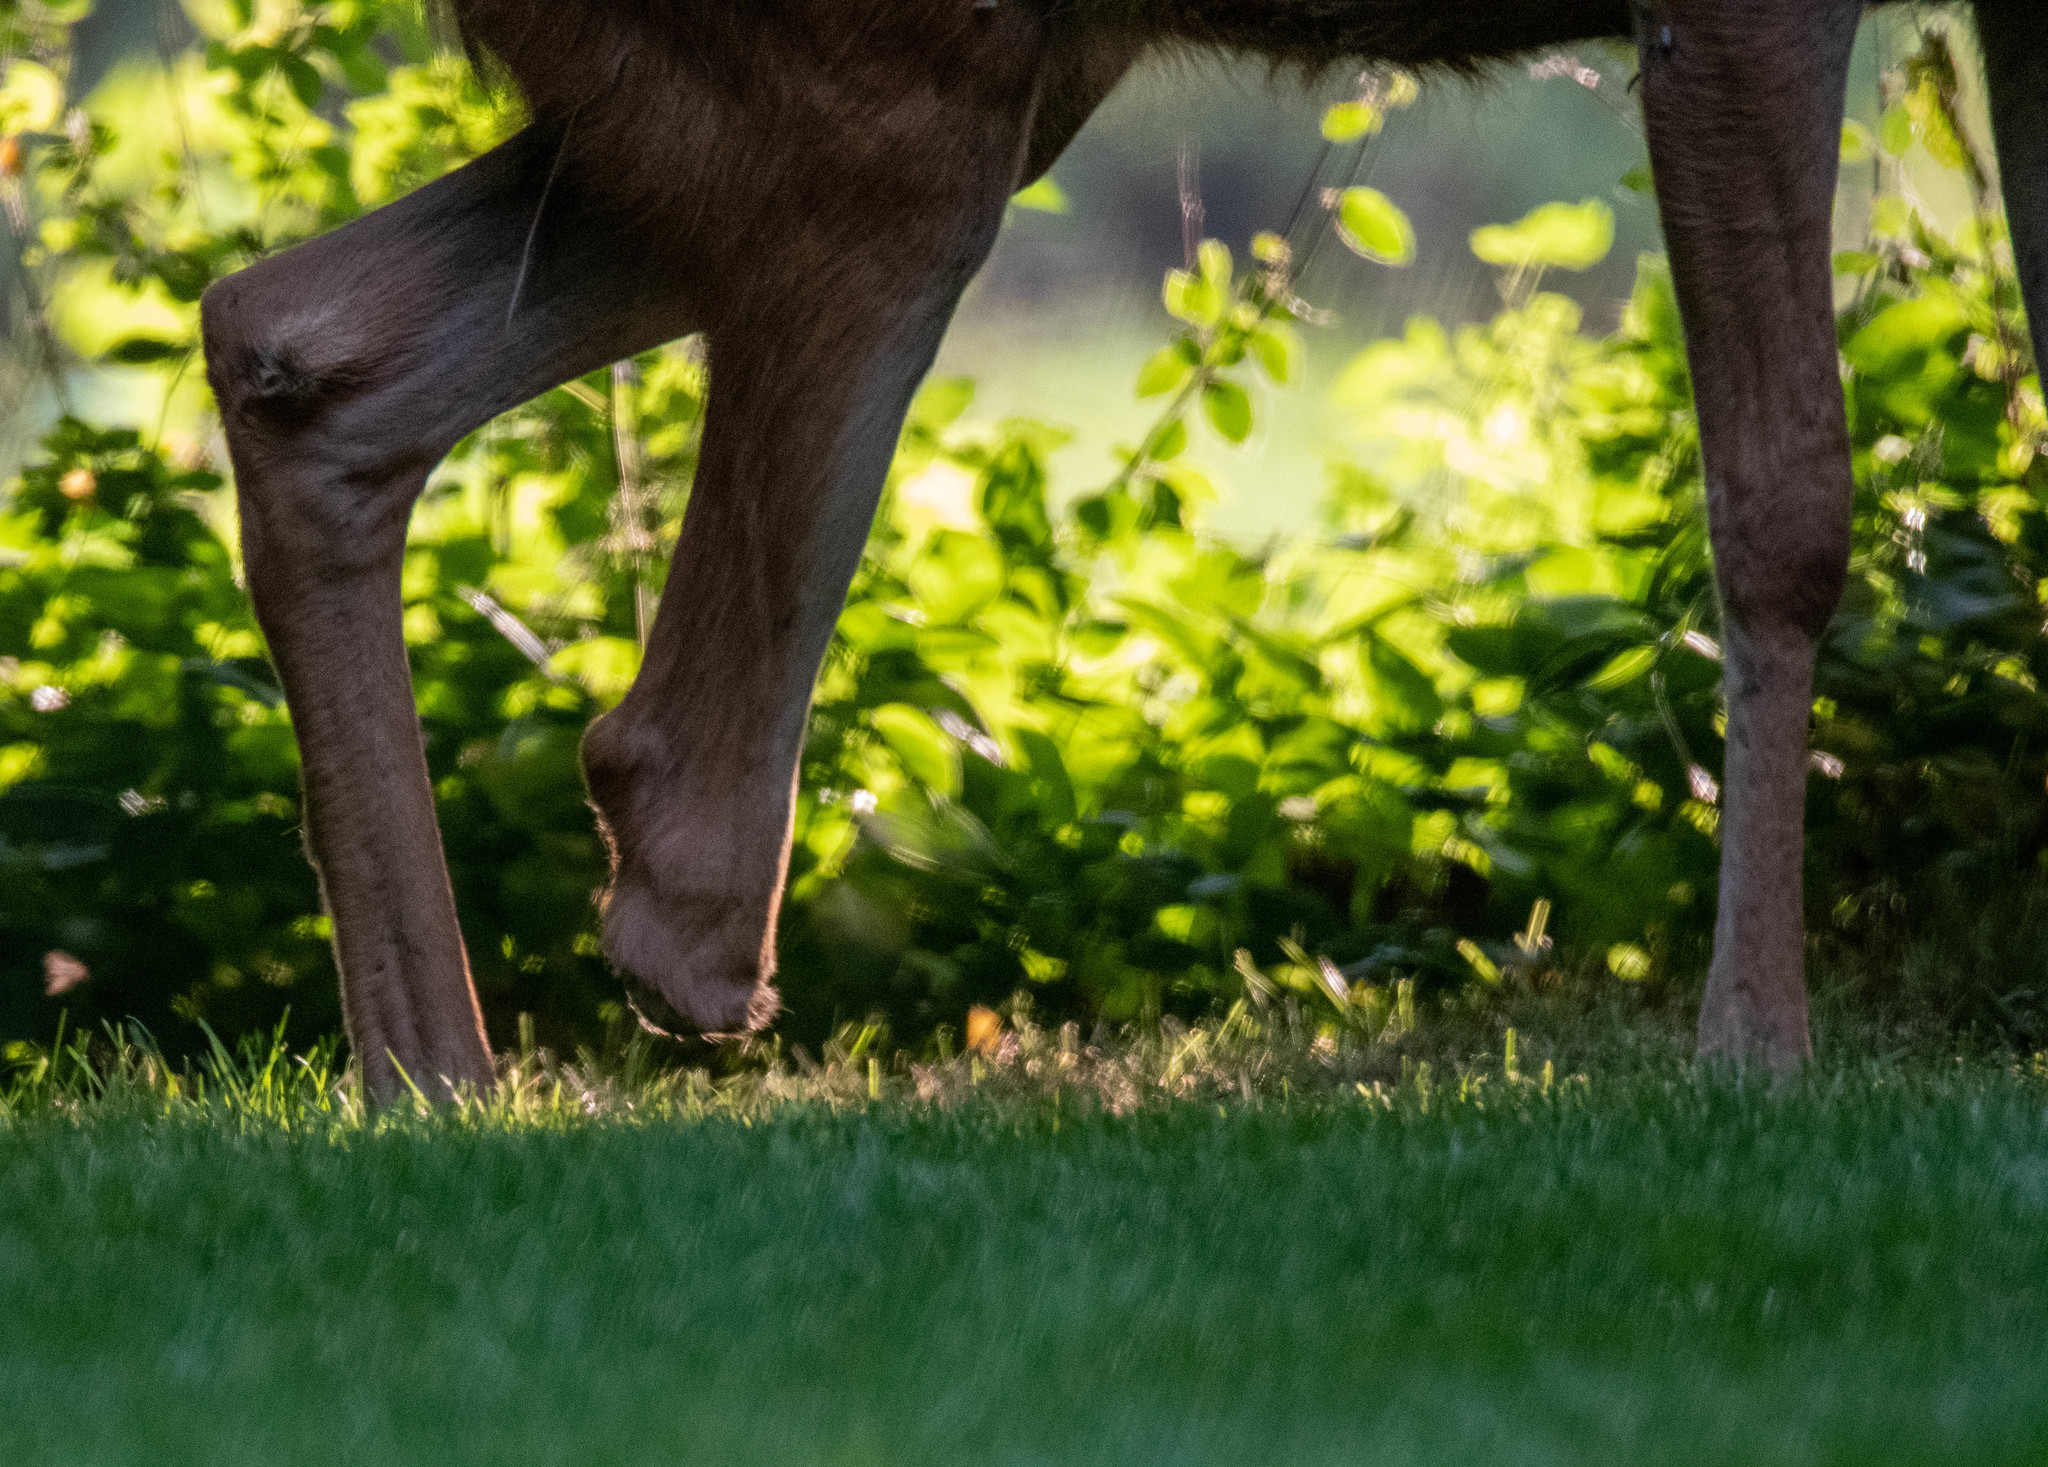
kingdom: Animalia
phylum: Chordata
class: Mammalia
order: Artiodactyla
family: Cervidae
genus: Odocoileus
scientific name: Odocoileus hemionus
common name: Mule deer
